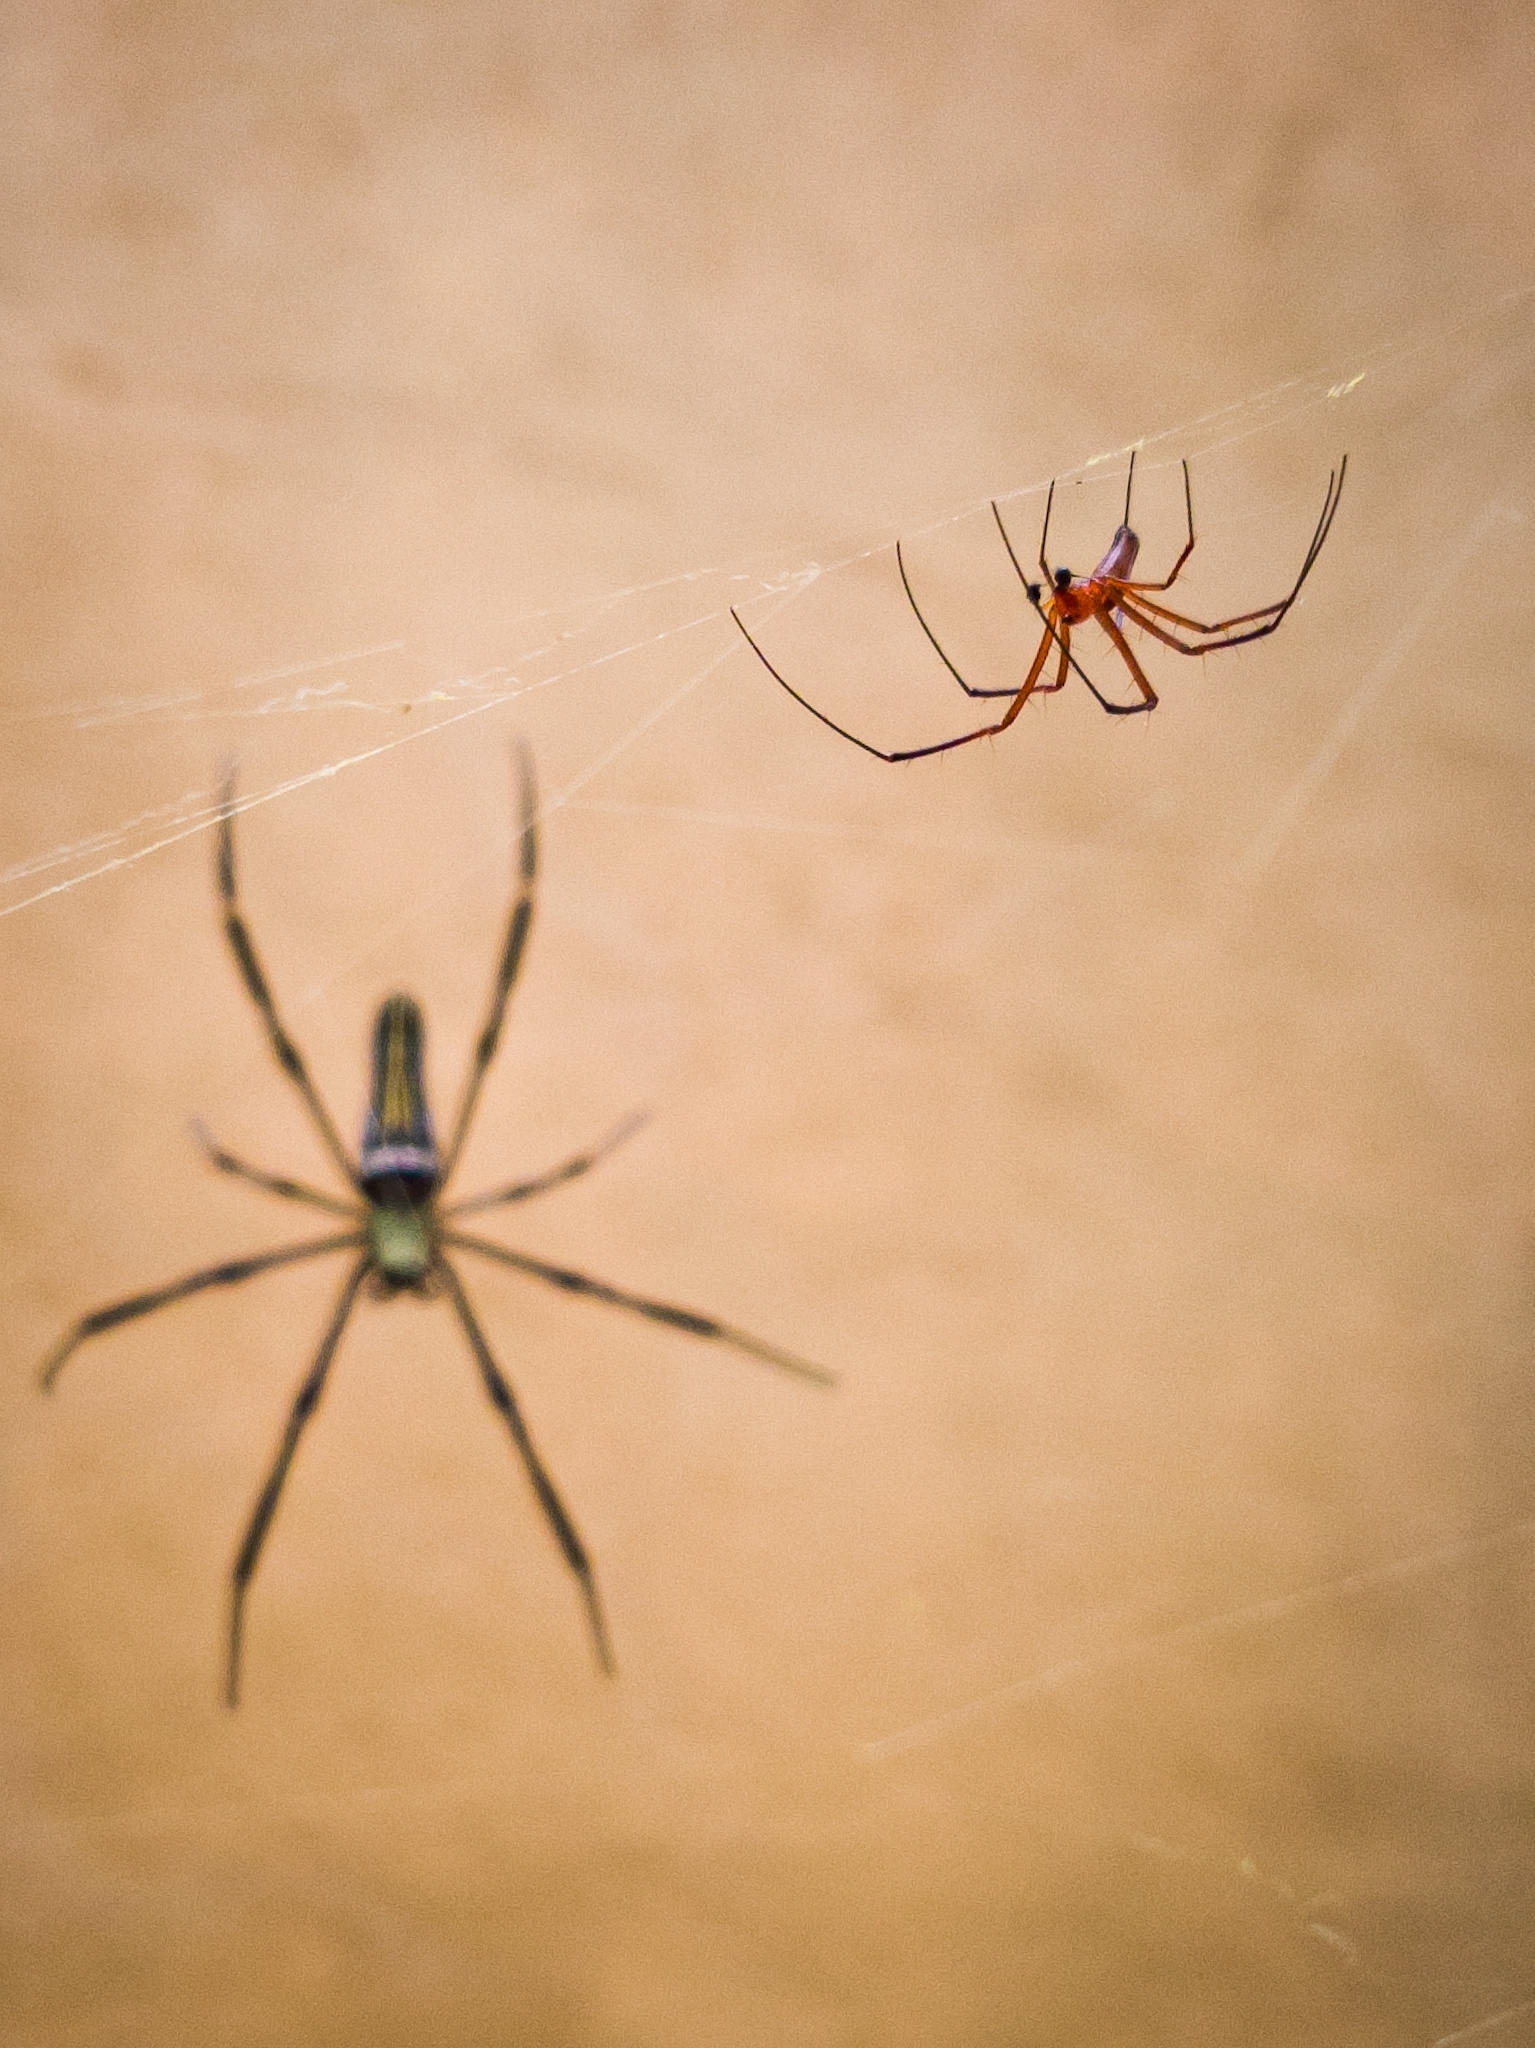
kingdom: Animalia
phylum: Arthropoda
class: Arachnida
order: Araneae
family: Araneidae
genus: Nephila
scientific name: Nephila pilipes
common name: Giant golden orb weaver
